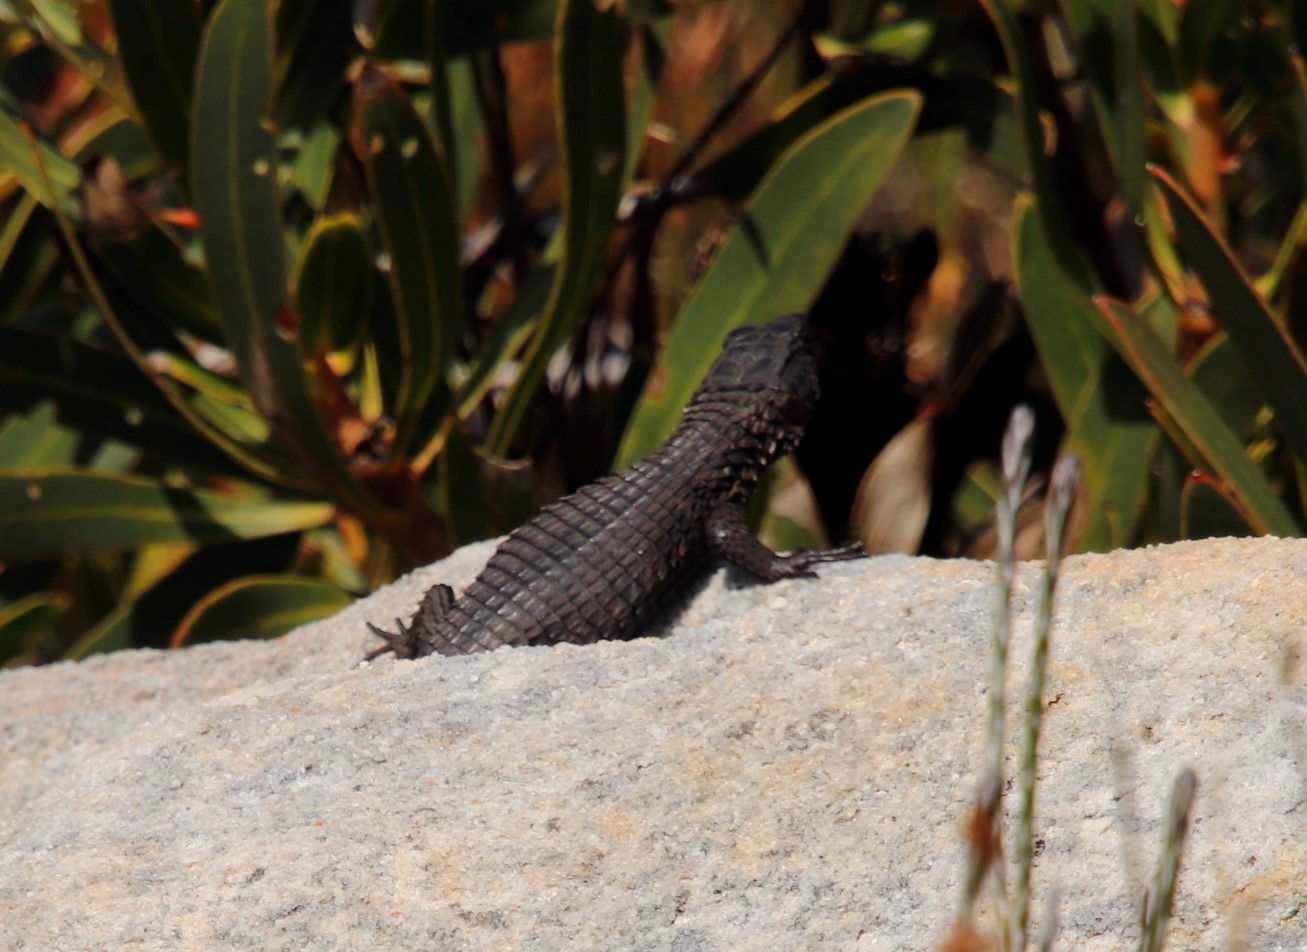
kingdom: Animalia
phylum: Chordata
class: Squamata
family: Cordylidae
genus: Cordylus
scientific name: Cordylus niger
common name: Black girdled lizard
